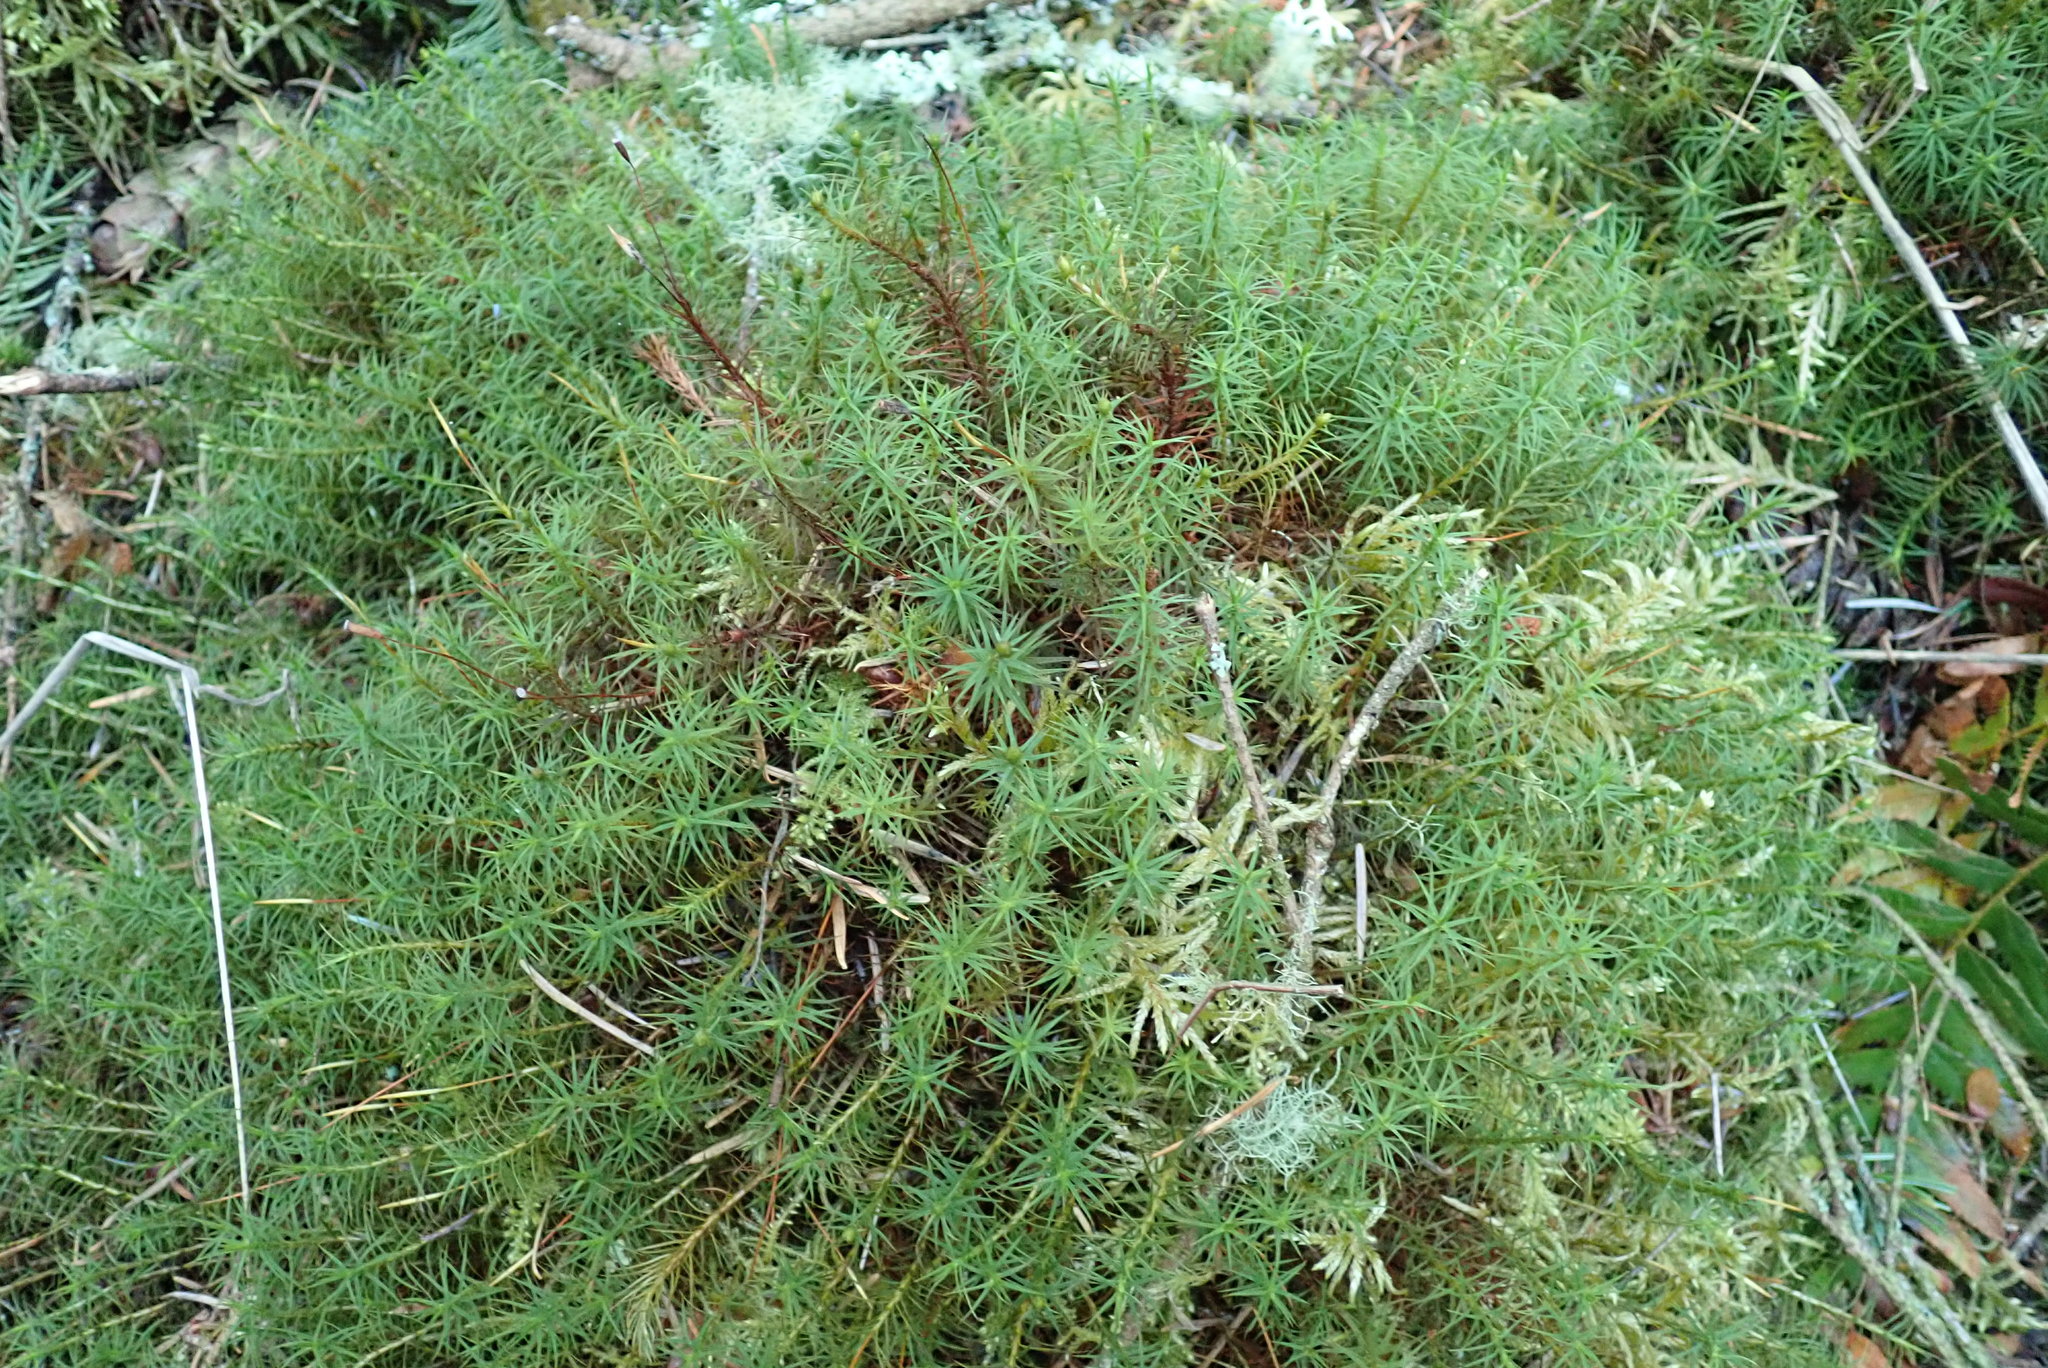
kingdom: Plantae
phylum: Bryophyta
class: Polytrichopsida
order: Polytrichales
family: Polytrichaceae
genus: Polytrichum
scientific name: Polytrichum commune
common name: Common haircap
